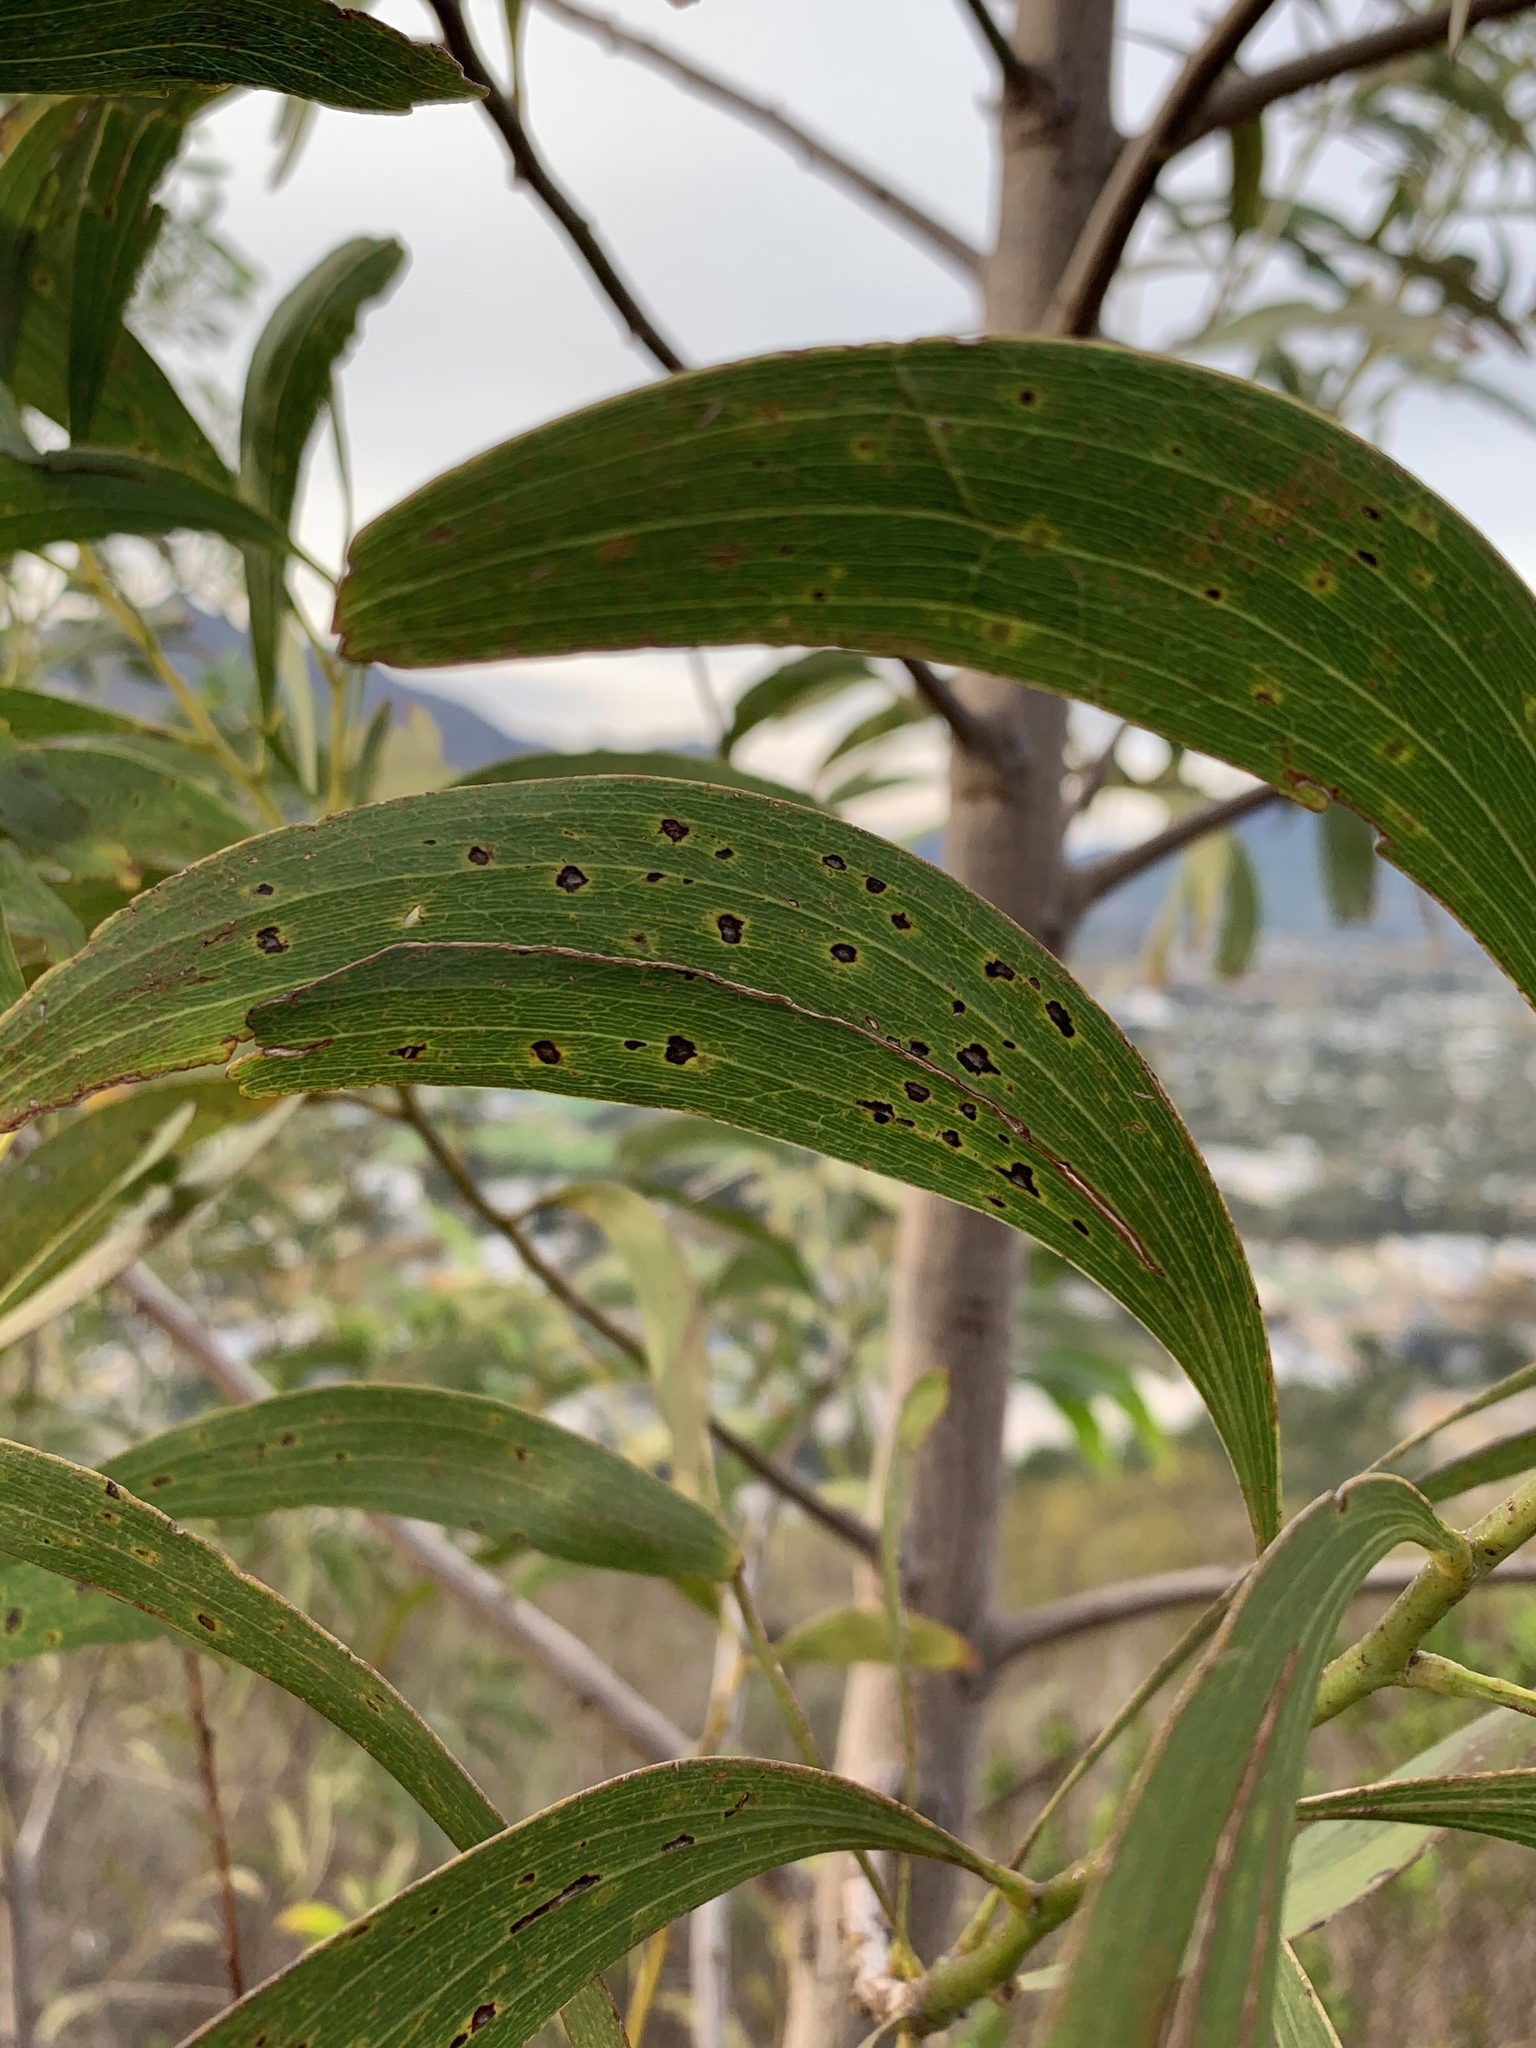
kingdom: Plantae
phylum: Tracheophyta
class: Magnoliopsida
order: Fabales
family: Fabaceae
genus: Acacia
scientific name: Acacia implexa
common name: Black wattle
